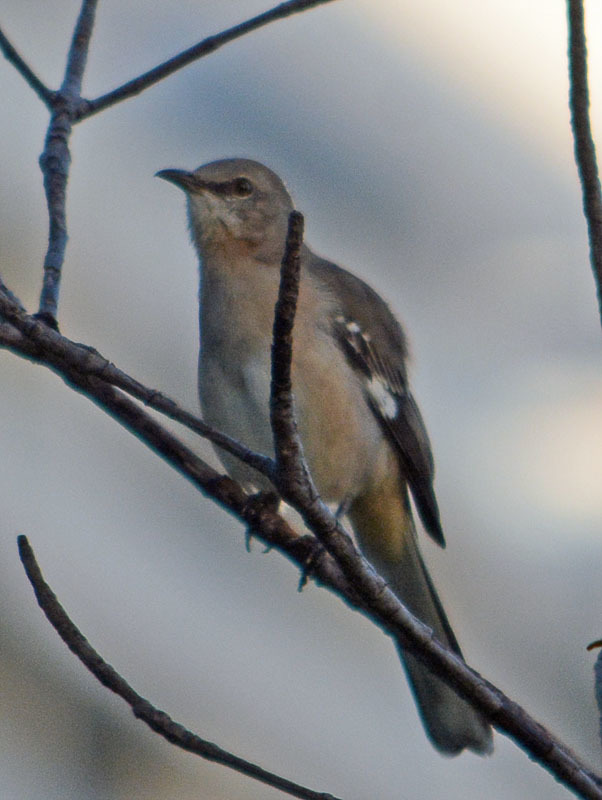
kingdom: Animalia
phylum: Chordata
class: Aves
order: Passeriformes
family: Mimidae
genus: Mimus
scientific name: Mimus polyglottos
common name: Northern mockingbird
